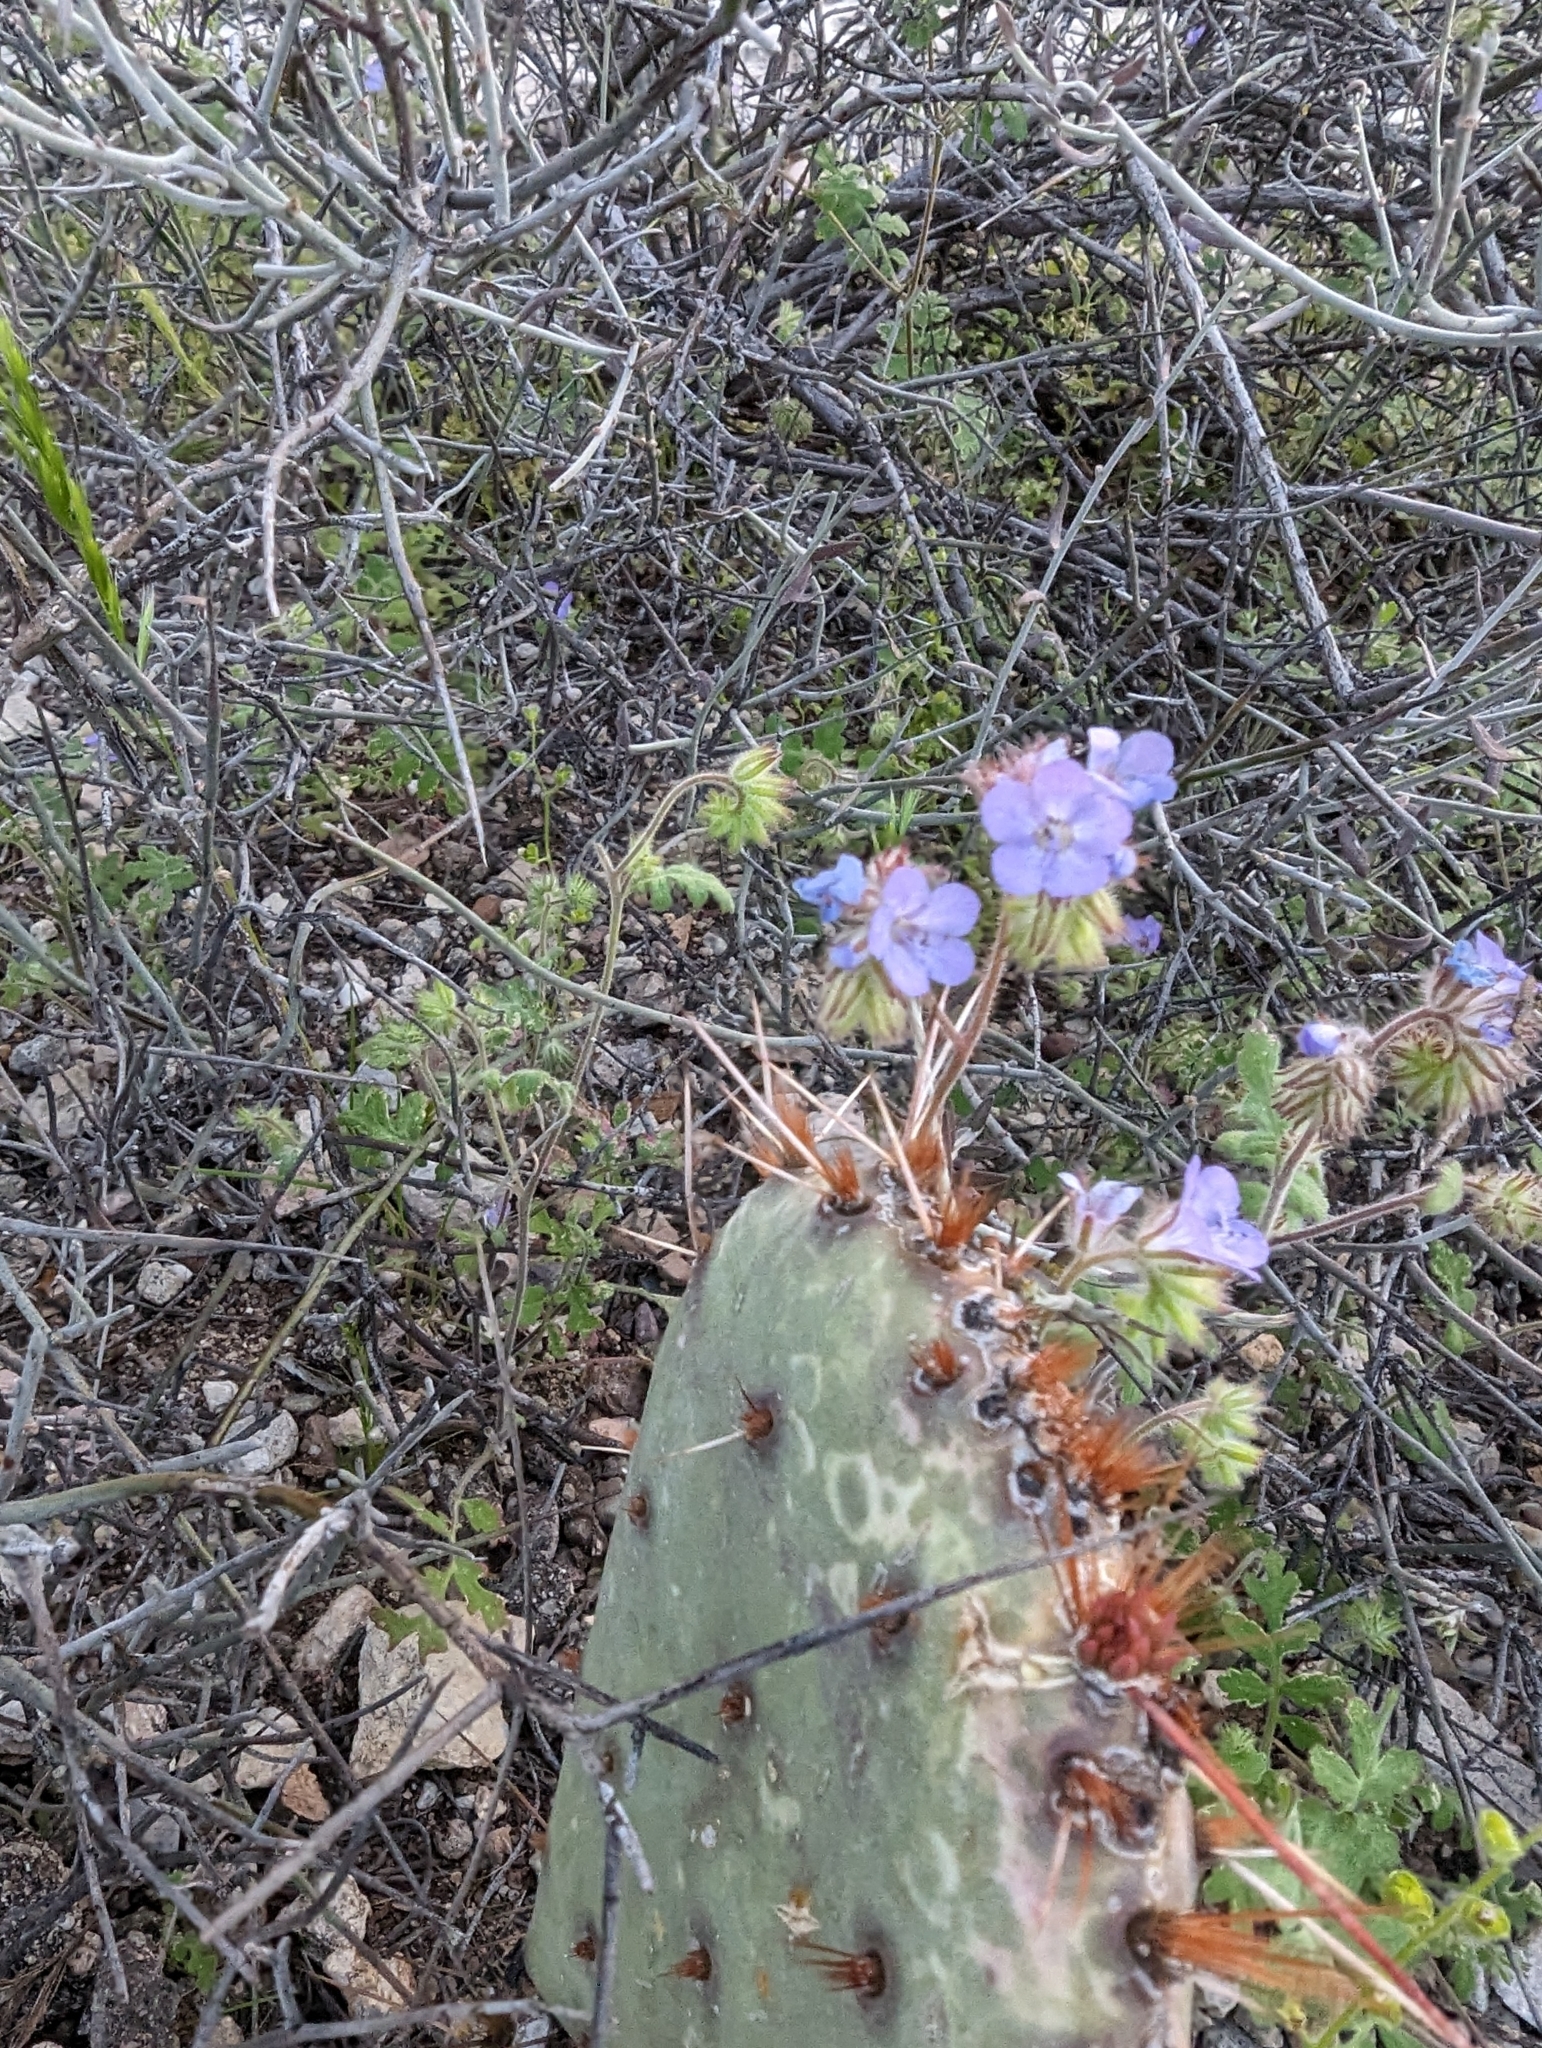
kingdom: Plantae
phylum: Tracheophyta
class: Magnoliopsida
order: Boraginales
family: Hydrophyllaceae
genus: Phacelia
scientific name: Phacelia distans
